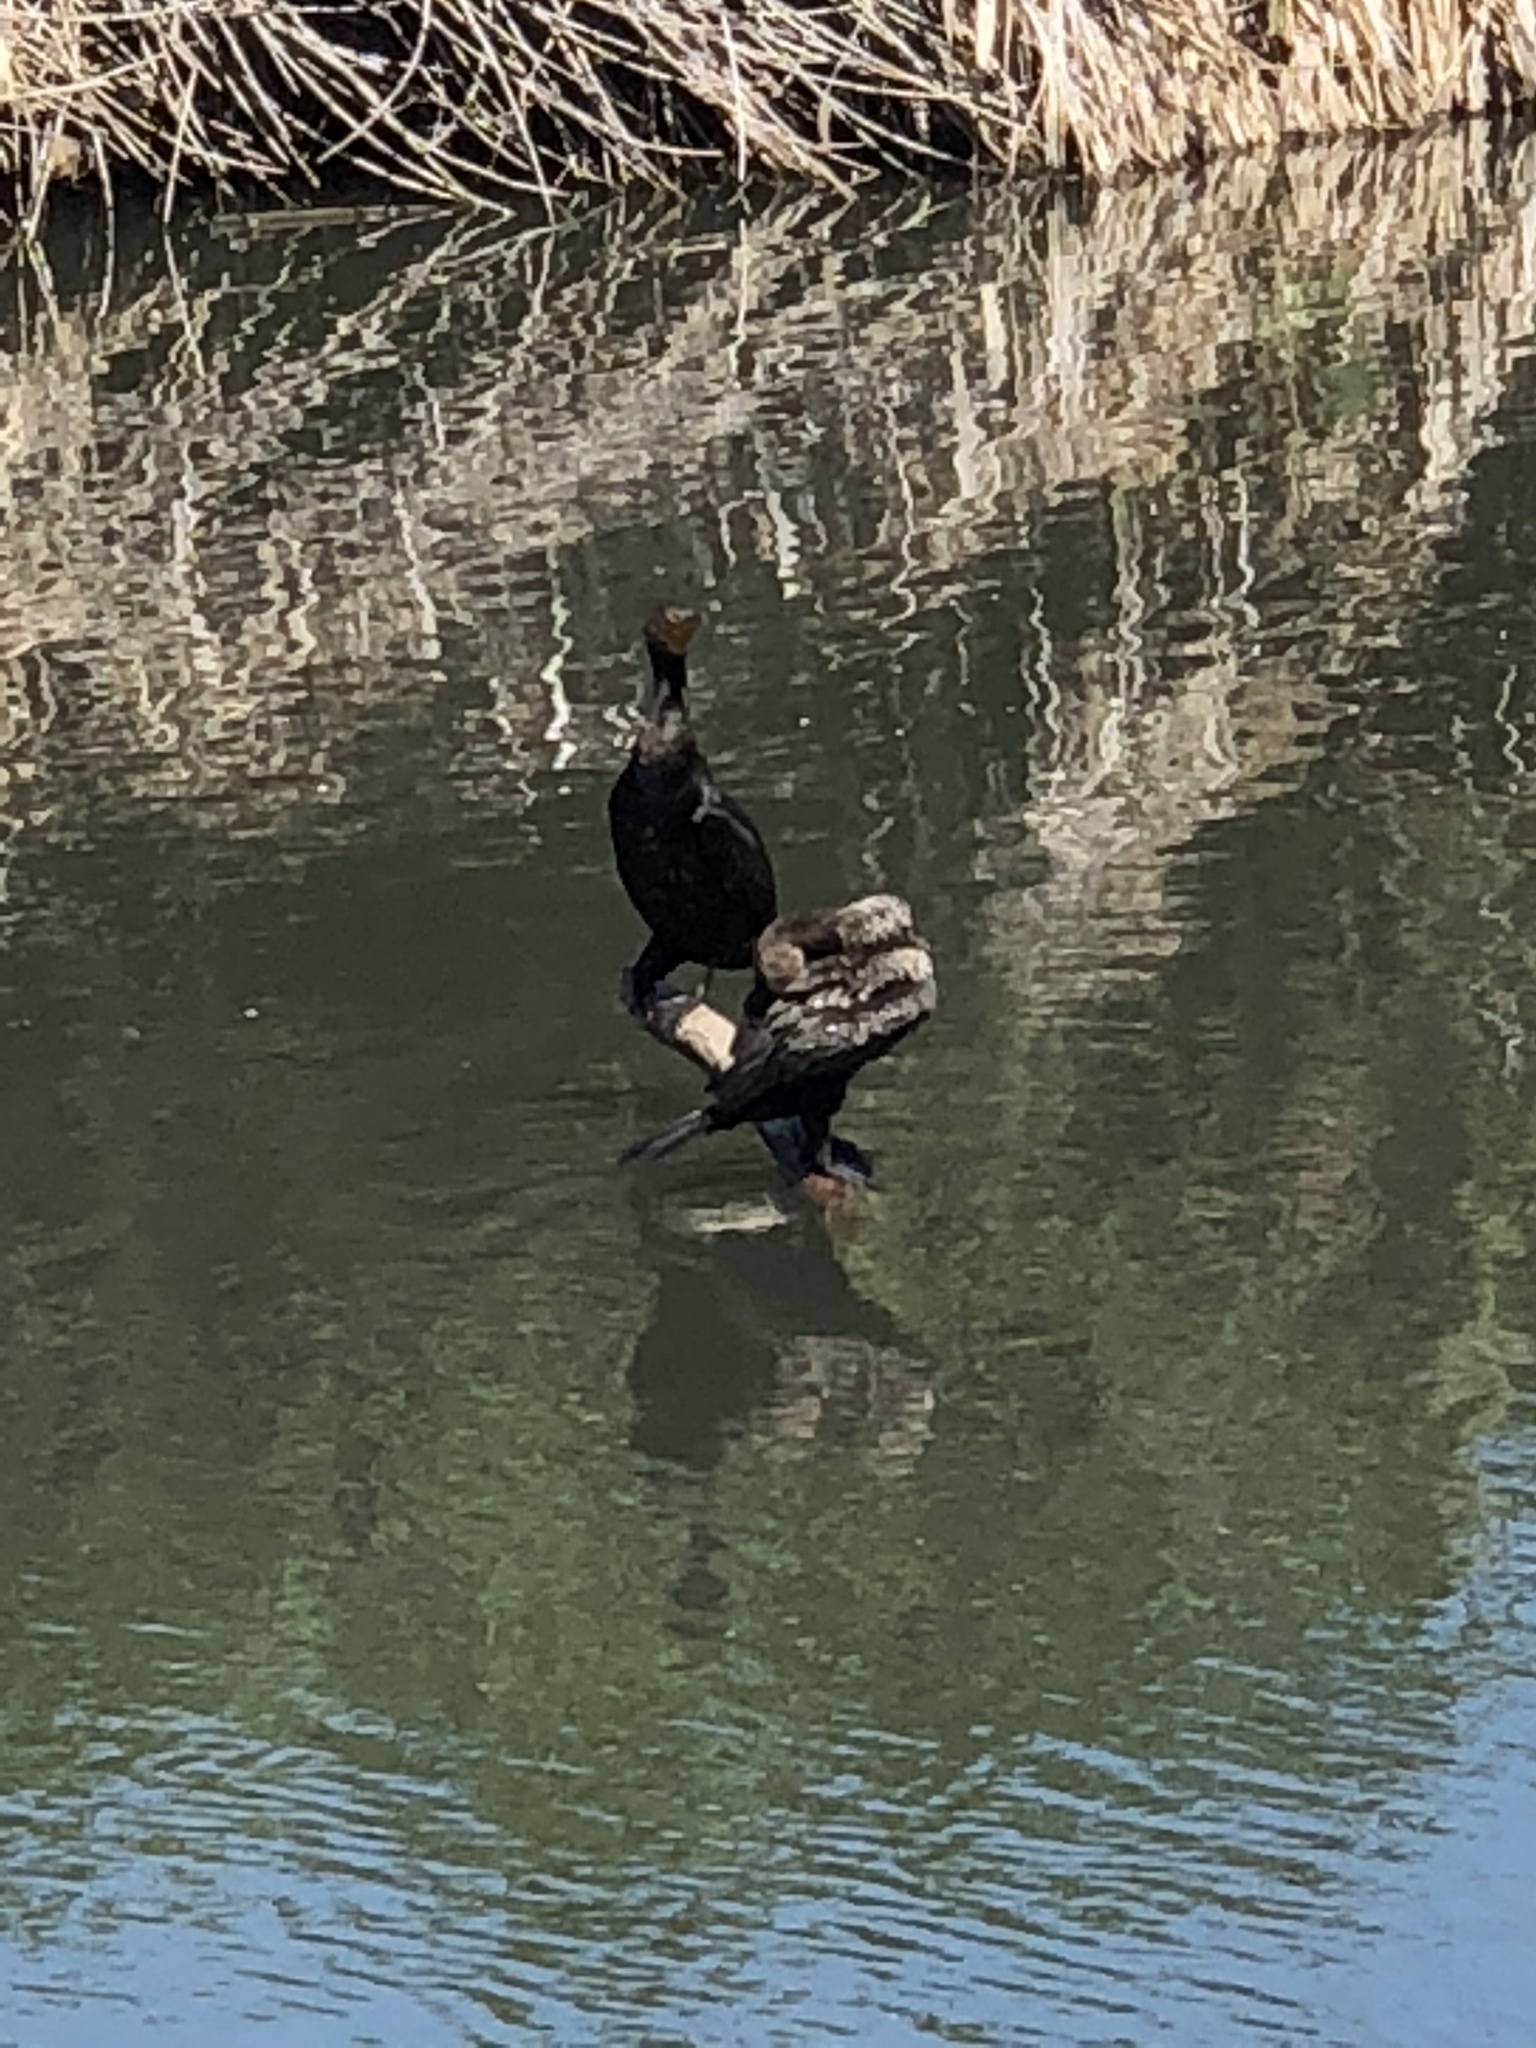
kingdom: Animalia
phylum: Chordata
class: Aves
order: Suliformes
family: Phalacrocoracidae
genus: Phalacrocorax
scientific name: Phalacrocorax auritus
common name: Double-crested cormorant
